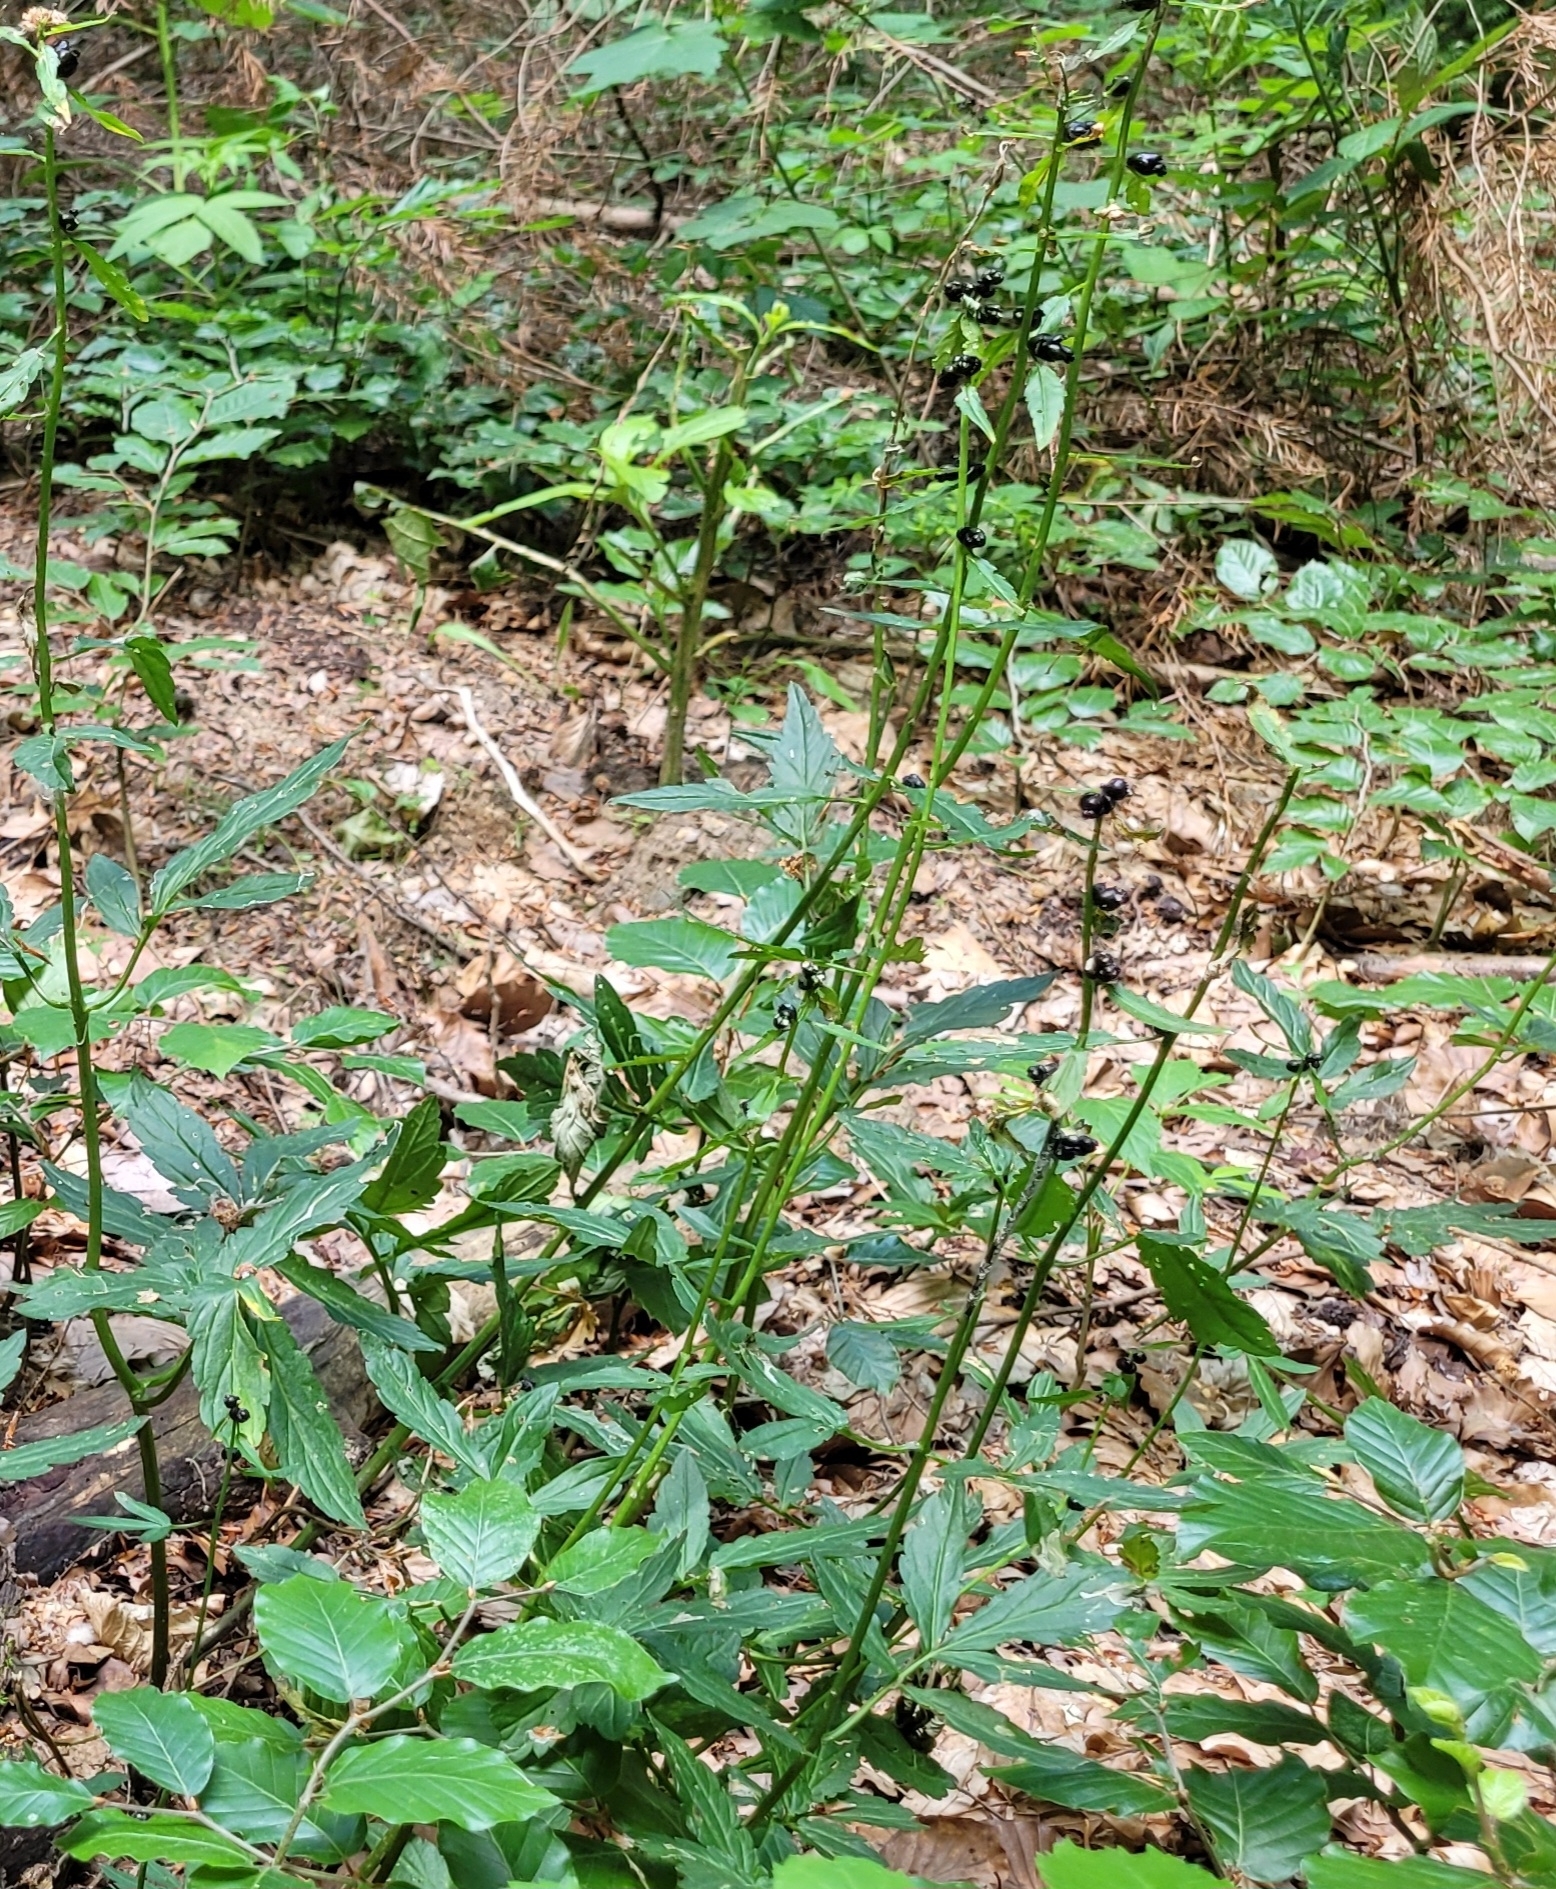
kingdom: Plantae
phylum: Tracheophyta
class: Magnoliopsida
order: Brassicales
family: Brassicaceae
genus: Cardamine
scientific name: Cardamine bulbifera
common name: Coralroot bittercress
